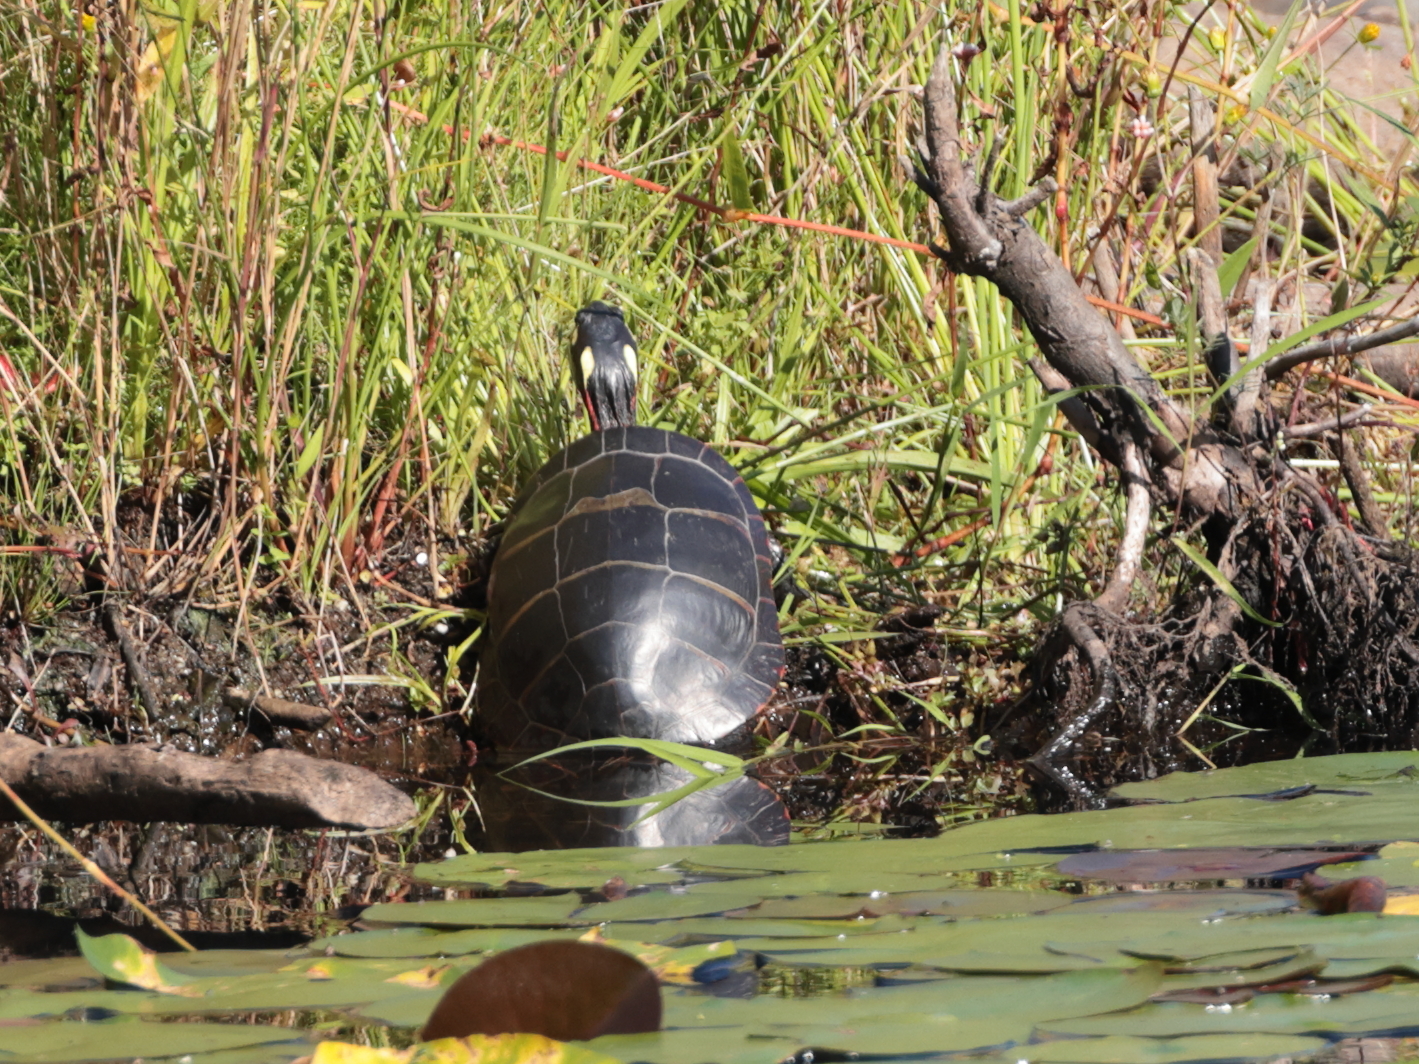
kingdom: Animalia
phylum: Chordata
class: Testudines
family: Emydidae
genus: Chrysemys
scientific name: Chrysemys picta
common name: Painted turtle
